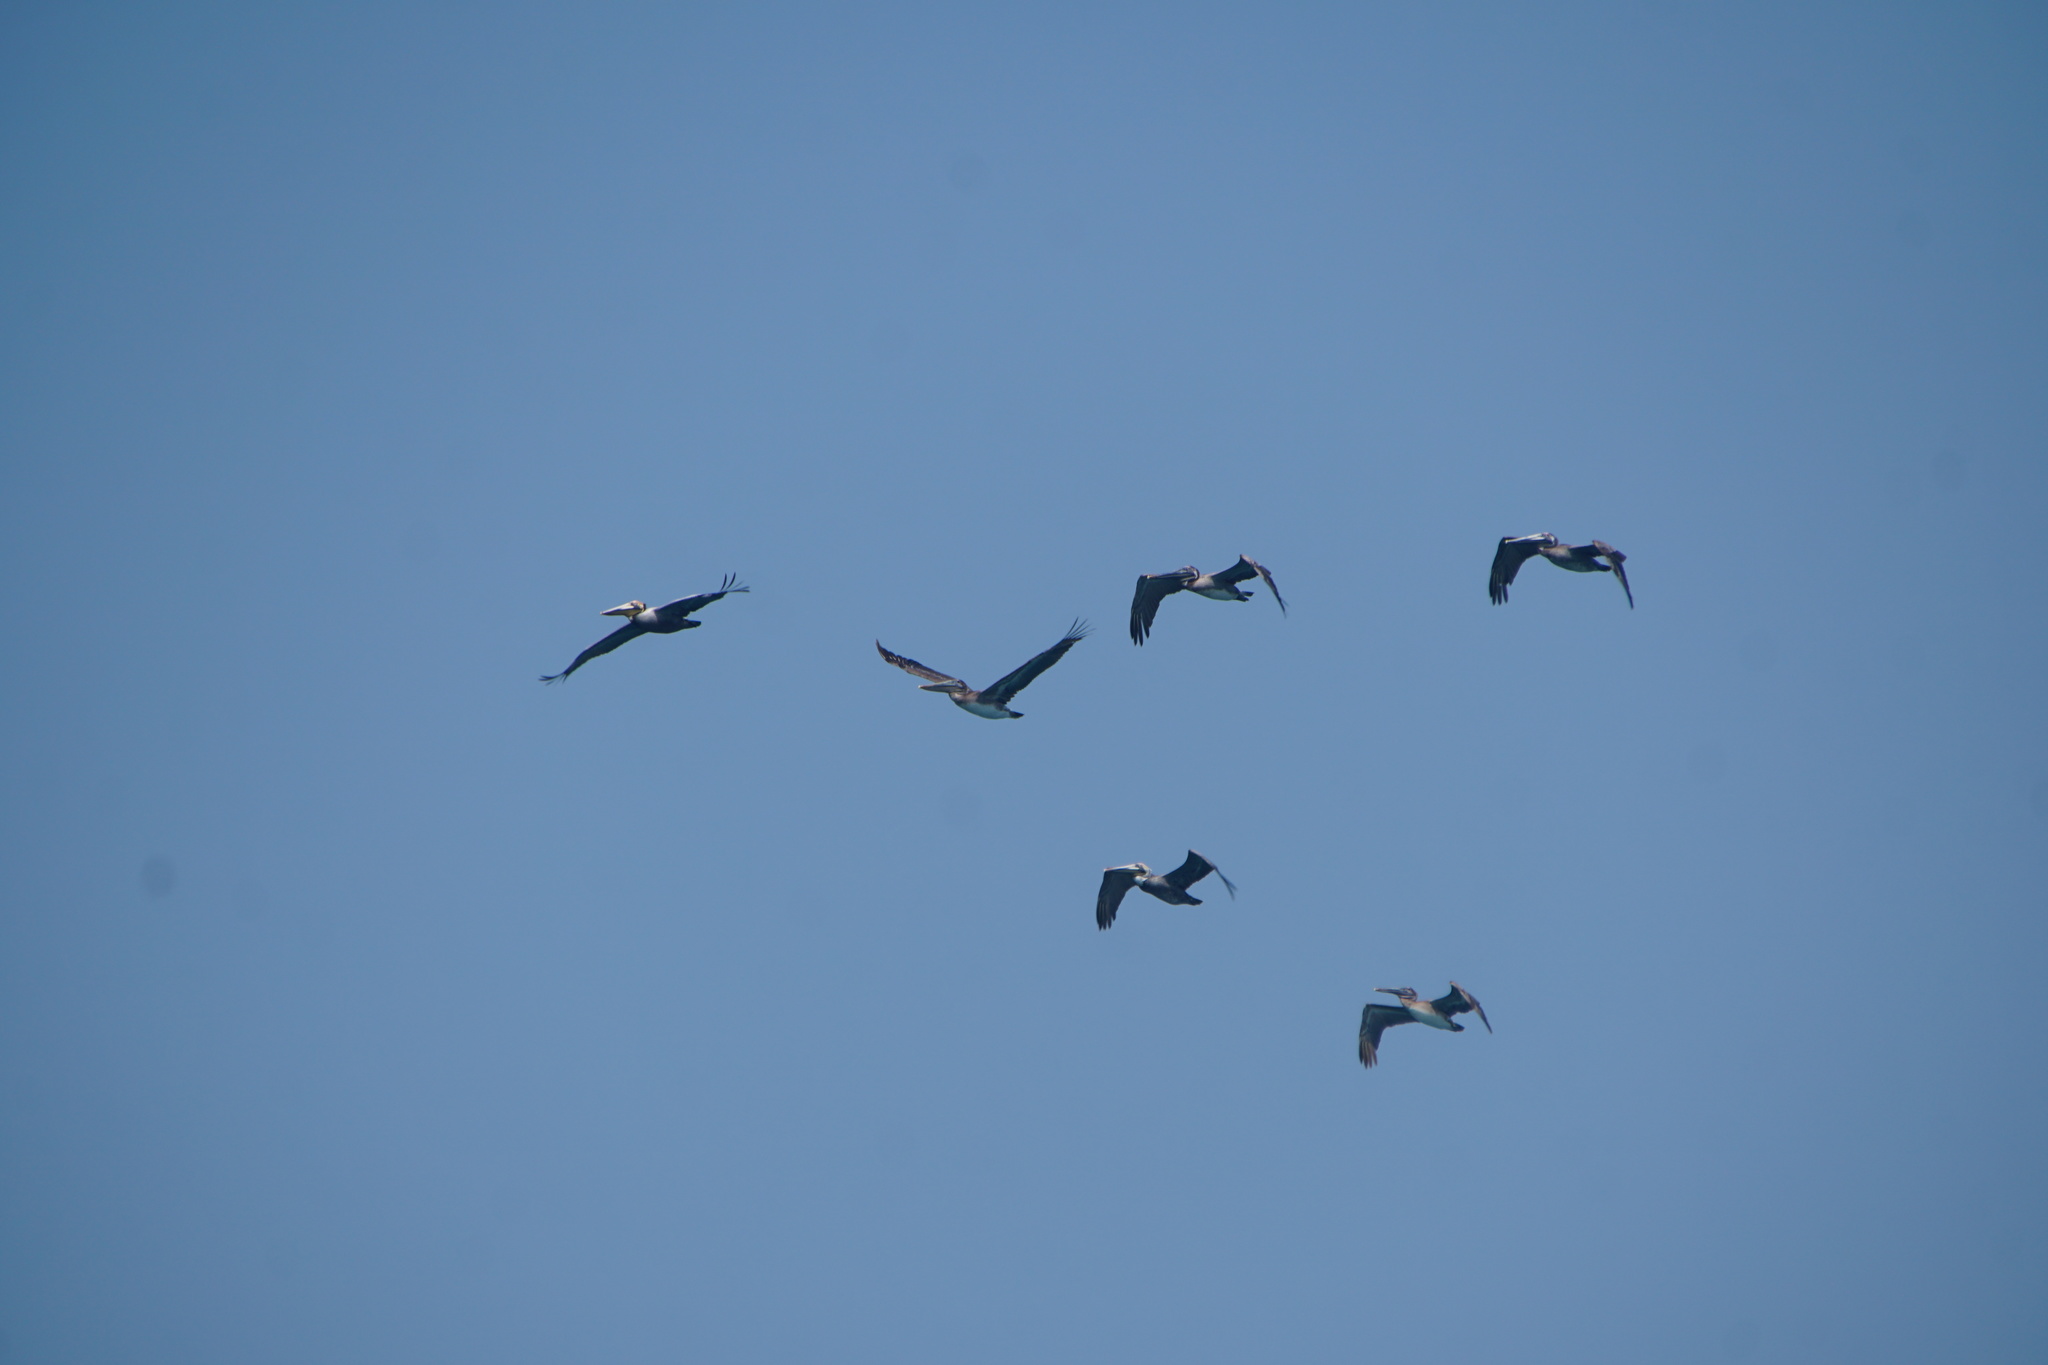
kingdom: Animalia
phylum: Chordata
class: Aves
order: Pelecaniformes
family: Pelecanidae
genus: Pelecanus
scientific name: Pelecanus occidentalis
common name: Brown pelican
